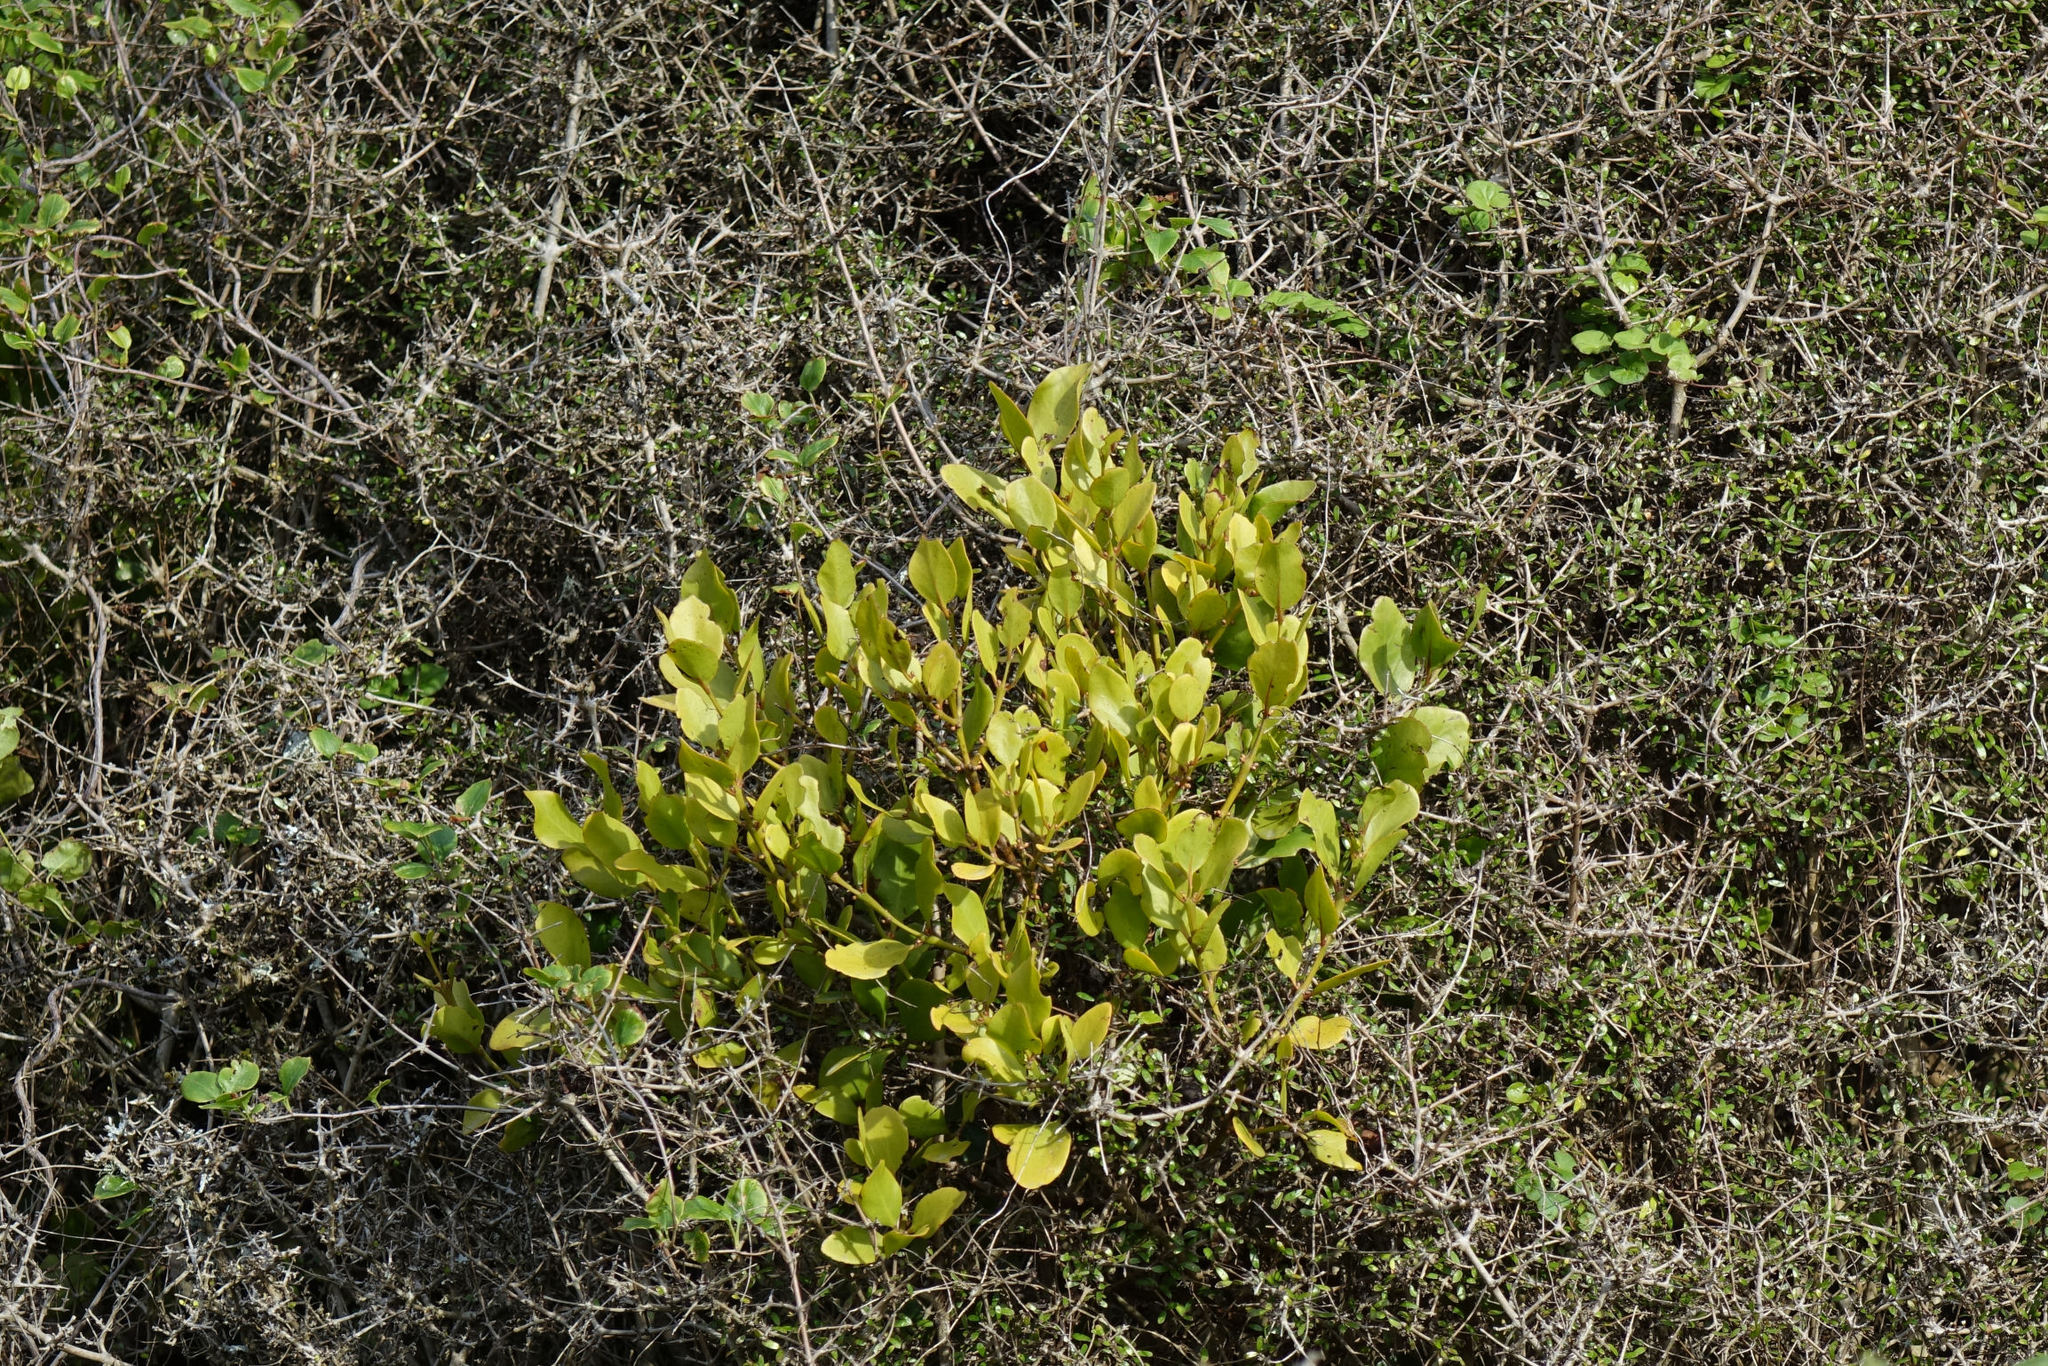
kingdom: Plantae
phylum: Tracheophyta
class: Magnoliopsida
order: Santalales
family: Loranthaceae
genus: Ileostylus
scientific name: Ileostylus micranthus
